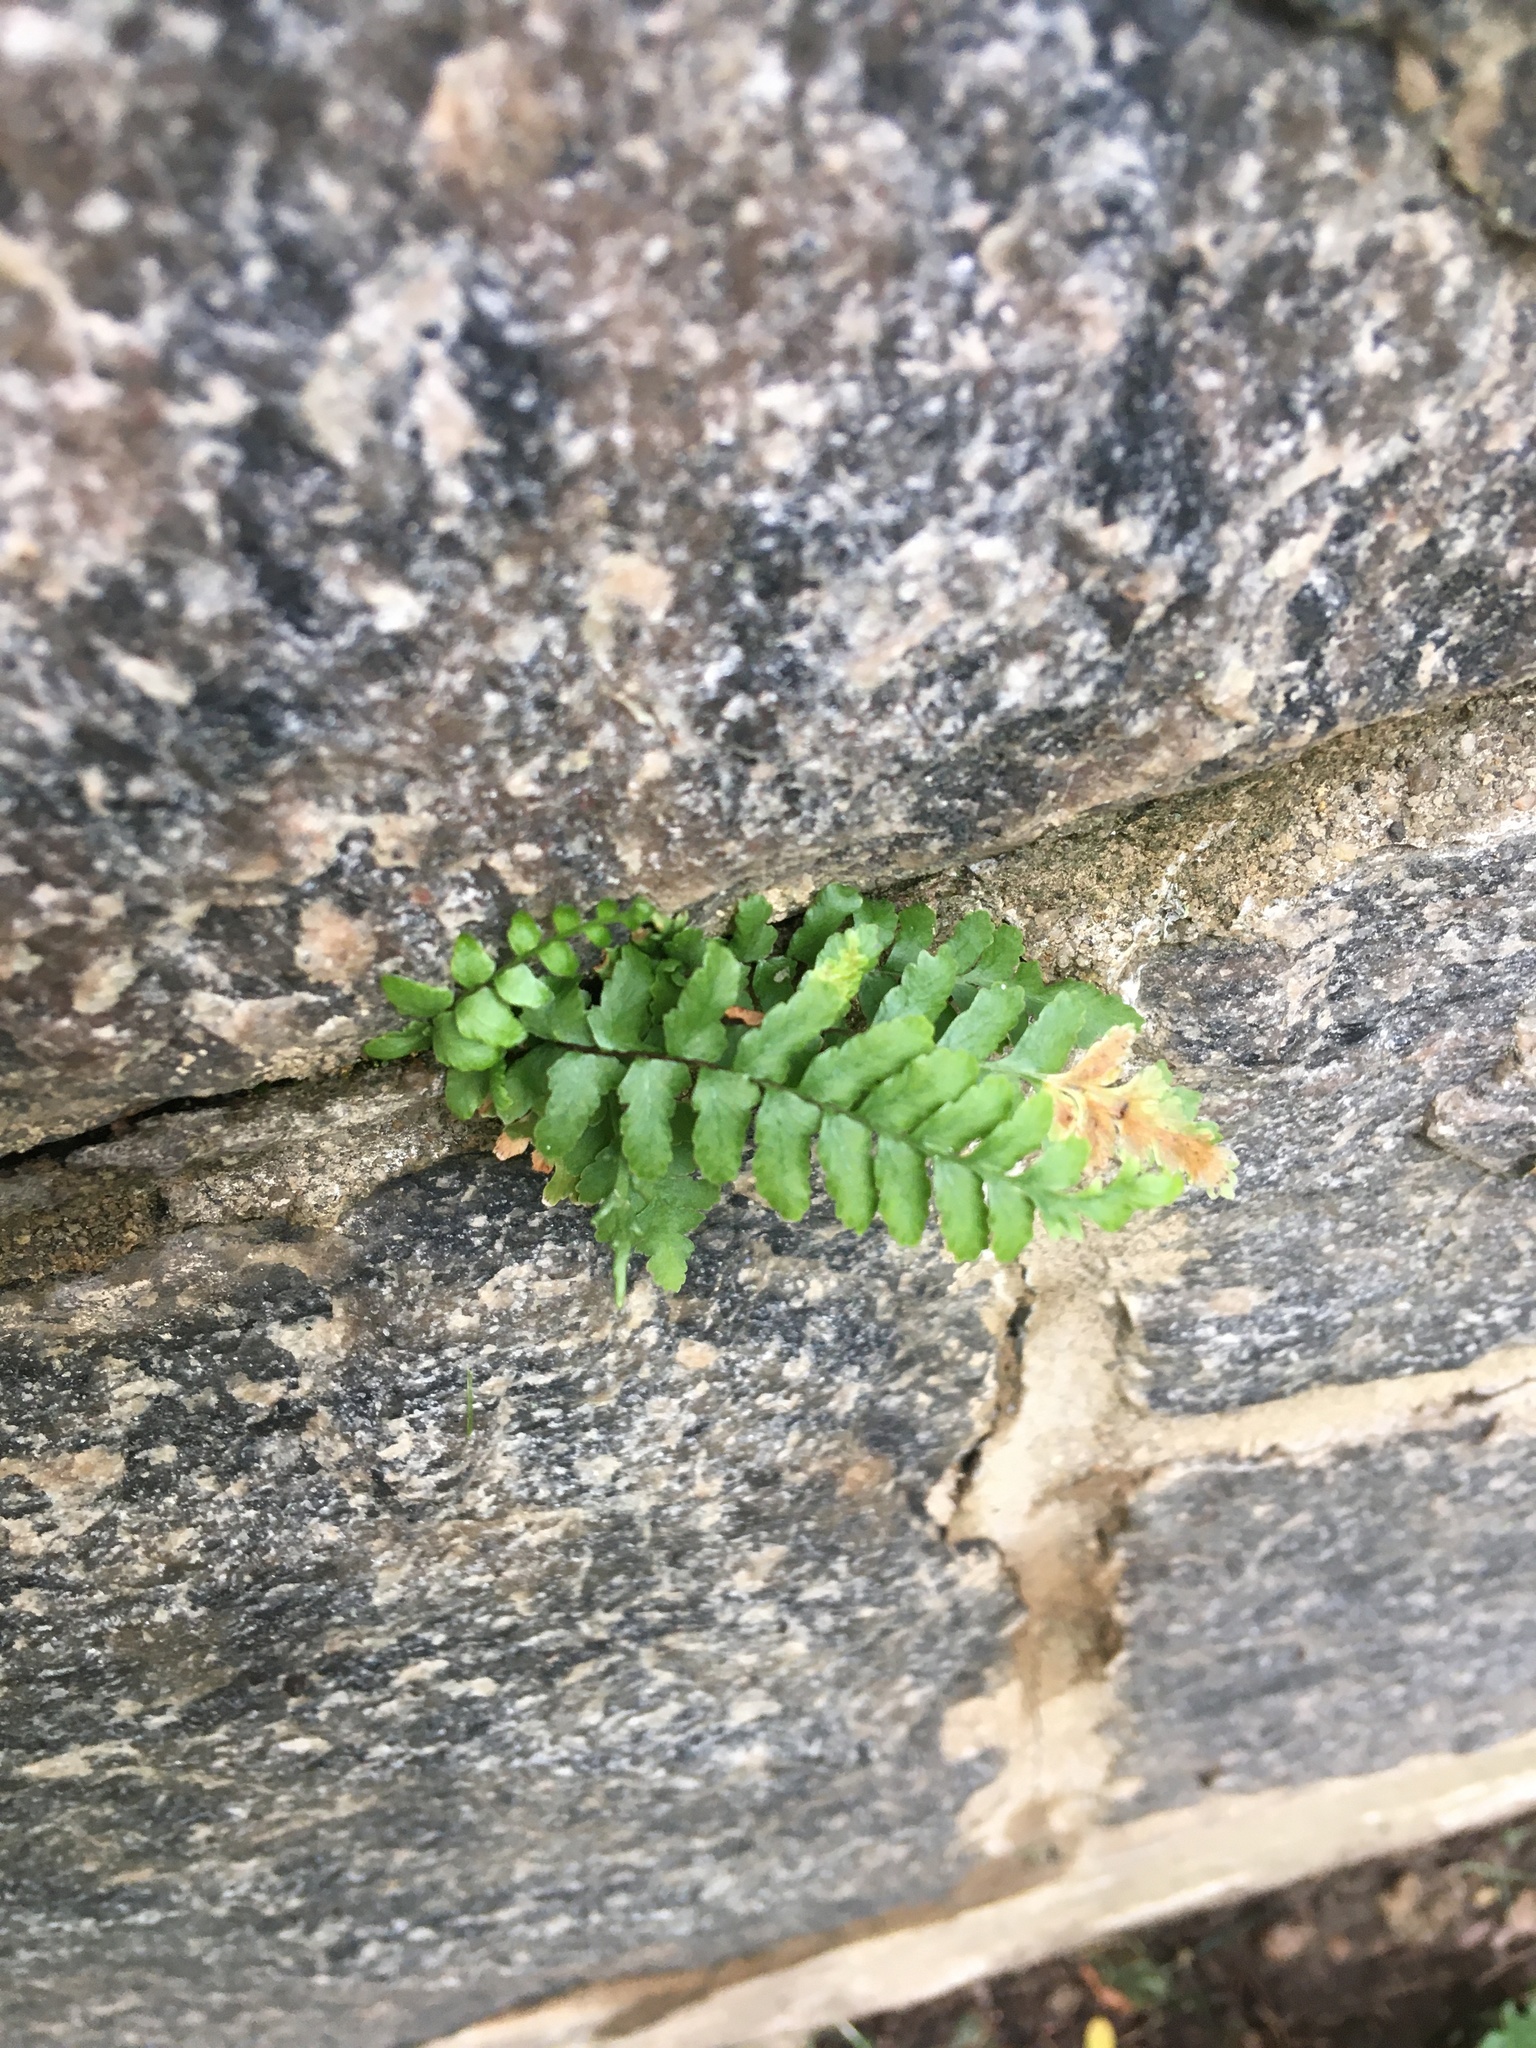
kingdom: Plantae
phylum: Tracheophyta
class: Polypodiopsida
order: Polypodiales
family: Aspleniaceae
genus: Asplenium
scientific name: Asplenium platyneuron
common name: Ebony spleenwort
